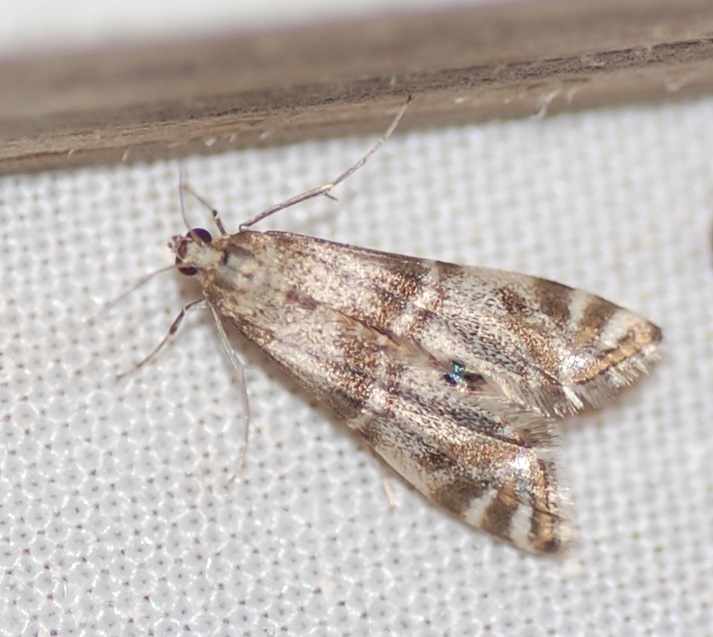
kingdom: Animalia
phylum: Arthropoda
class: Insecta
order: Lepidoptera
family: Crambidae
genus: Petrophila
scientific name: Petrophila bifascialis
